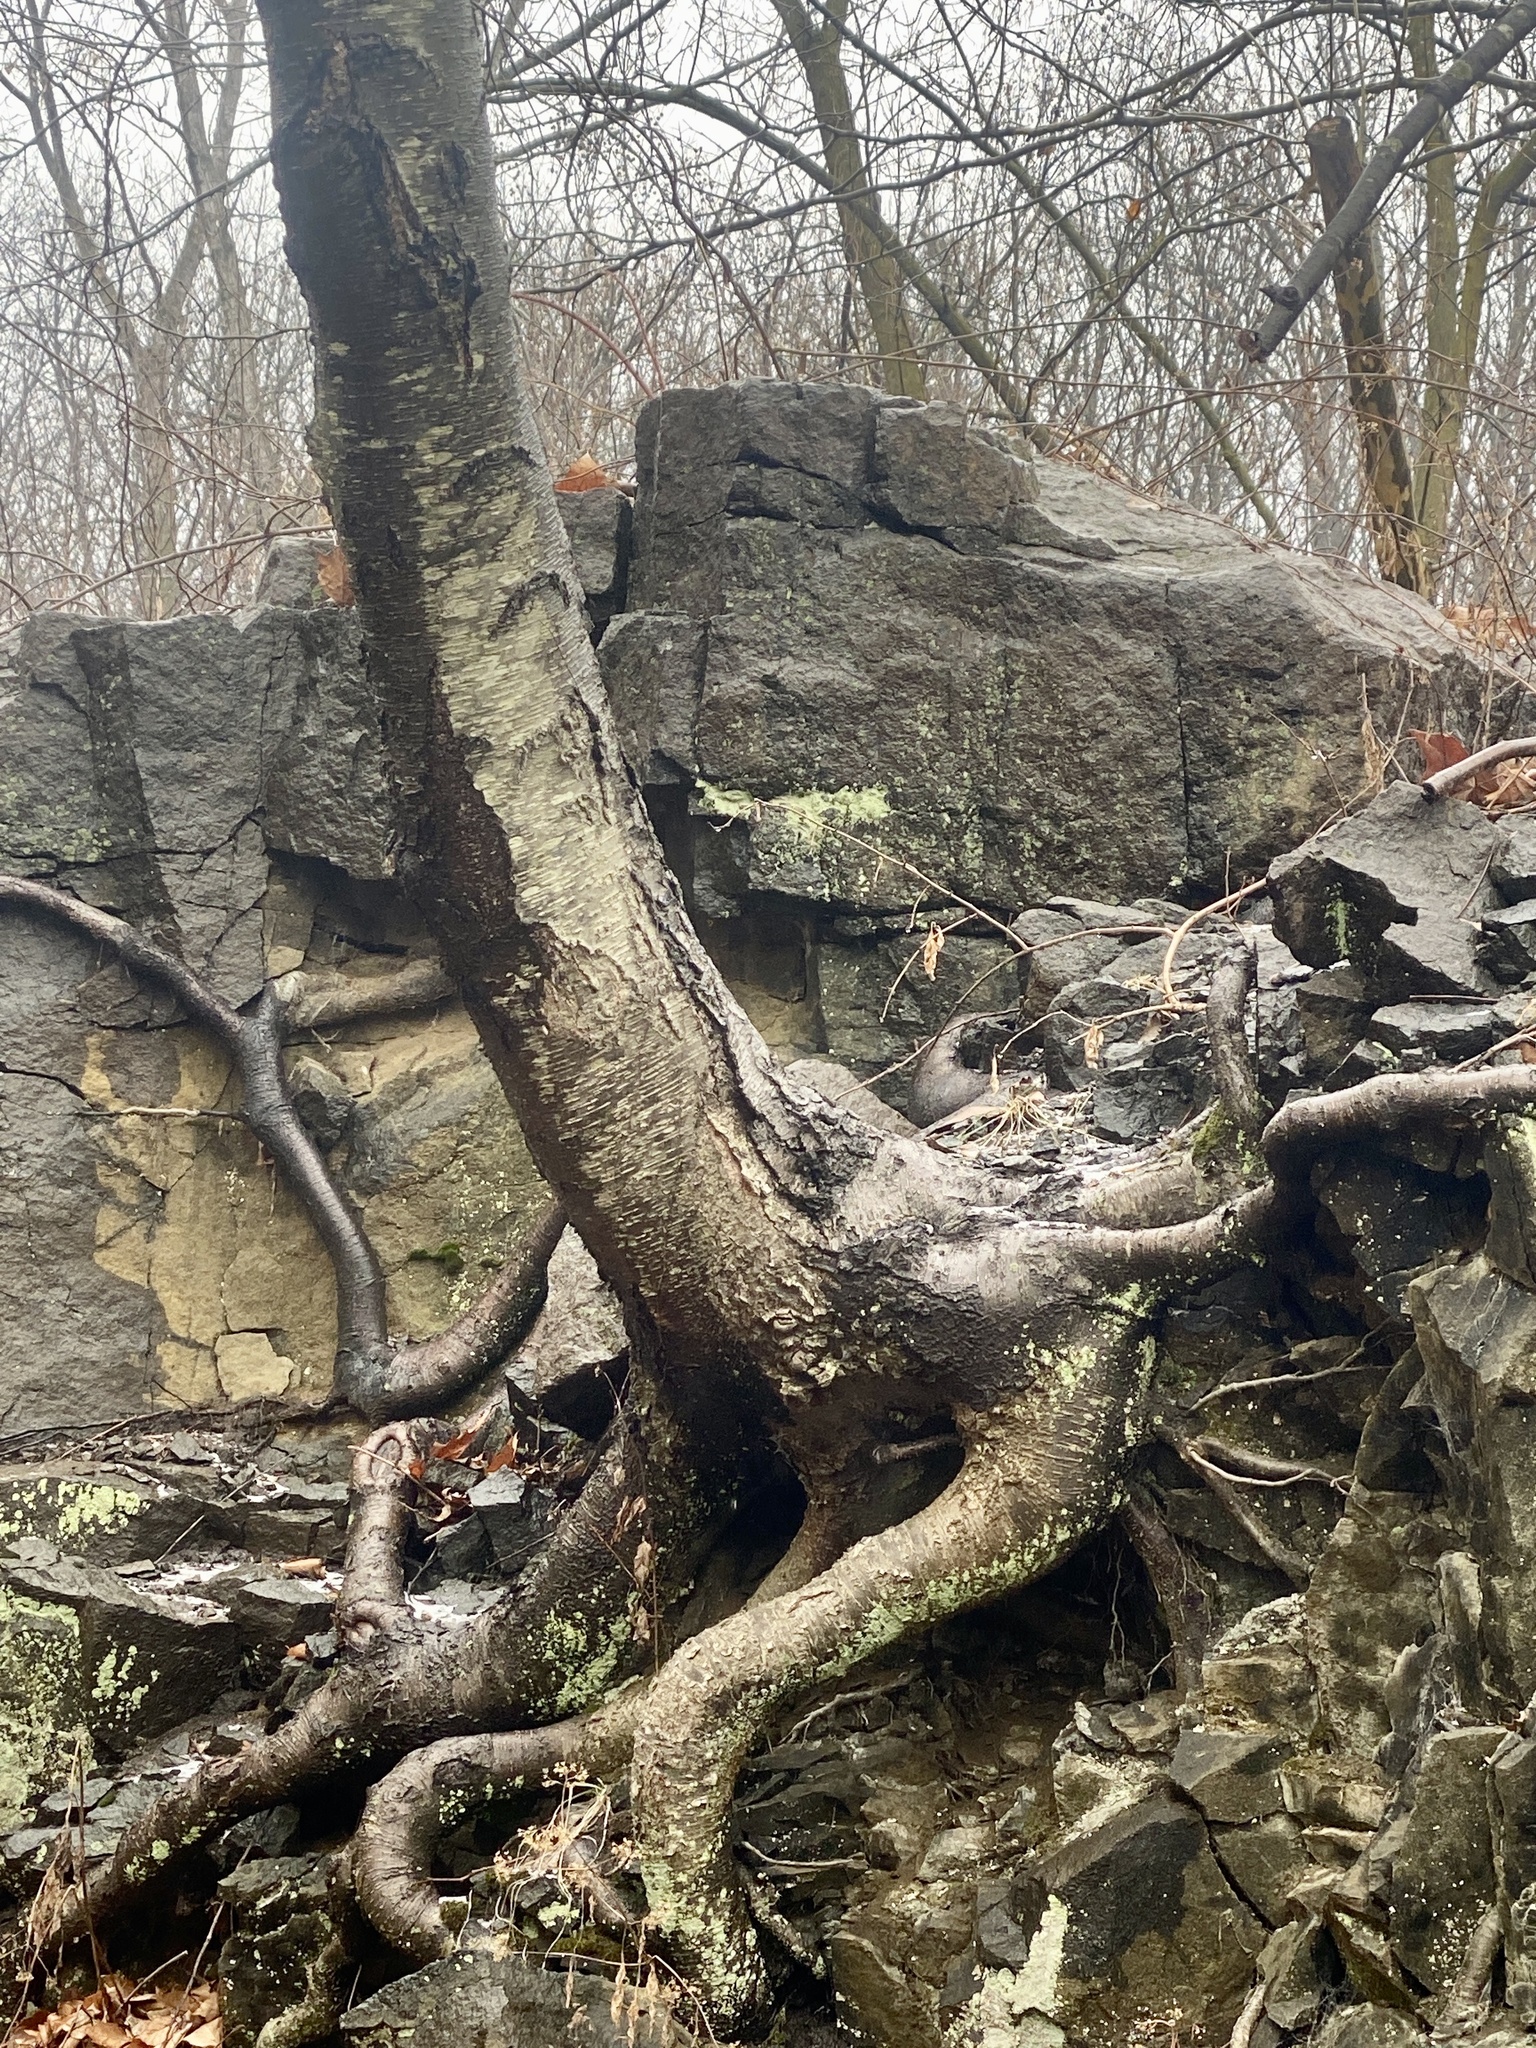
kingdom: Plantae
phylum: Tracheophyta
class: Magnoliopsida
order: Fagales
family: Betulaceae
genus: Betula
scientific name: Betula lenta
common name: Black birch
